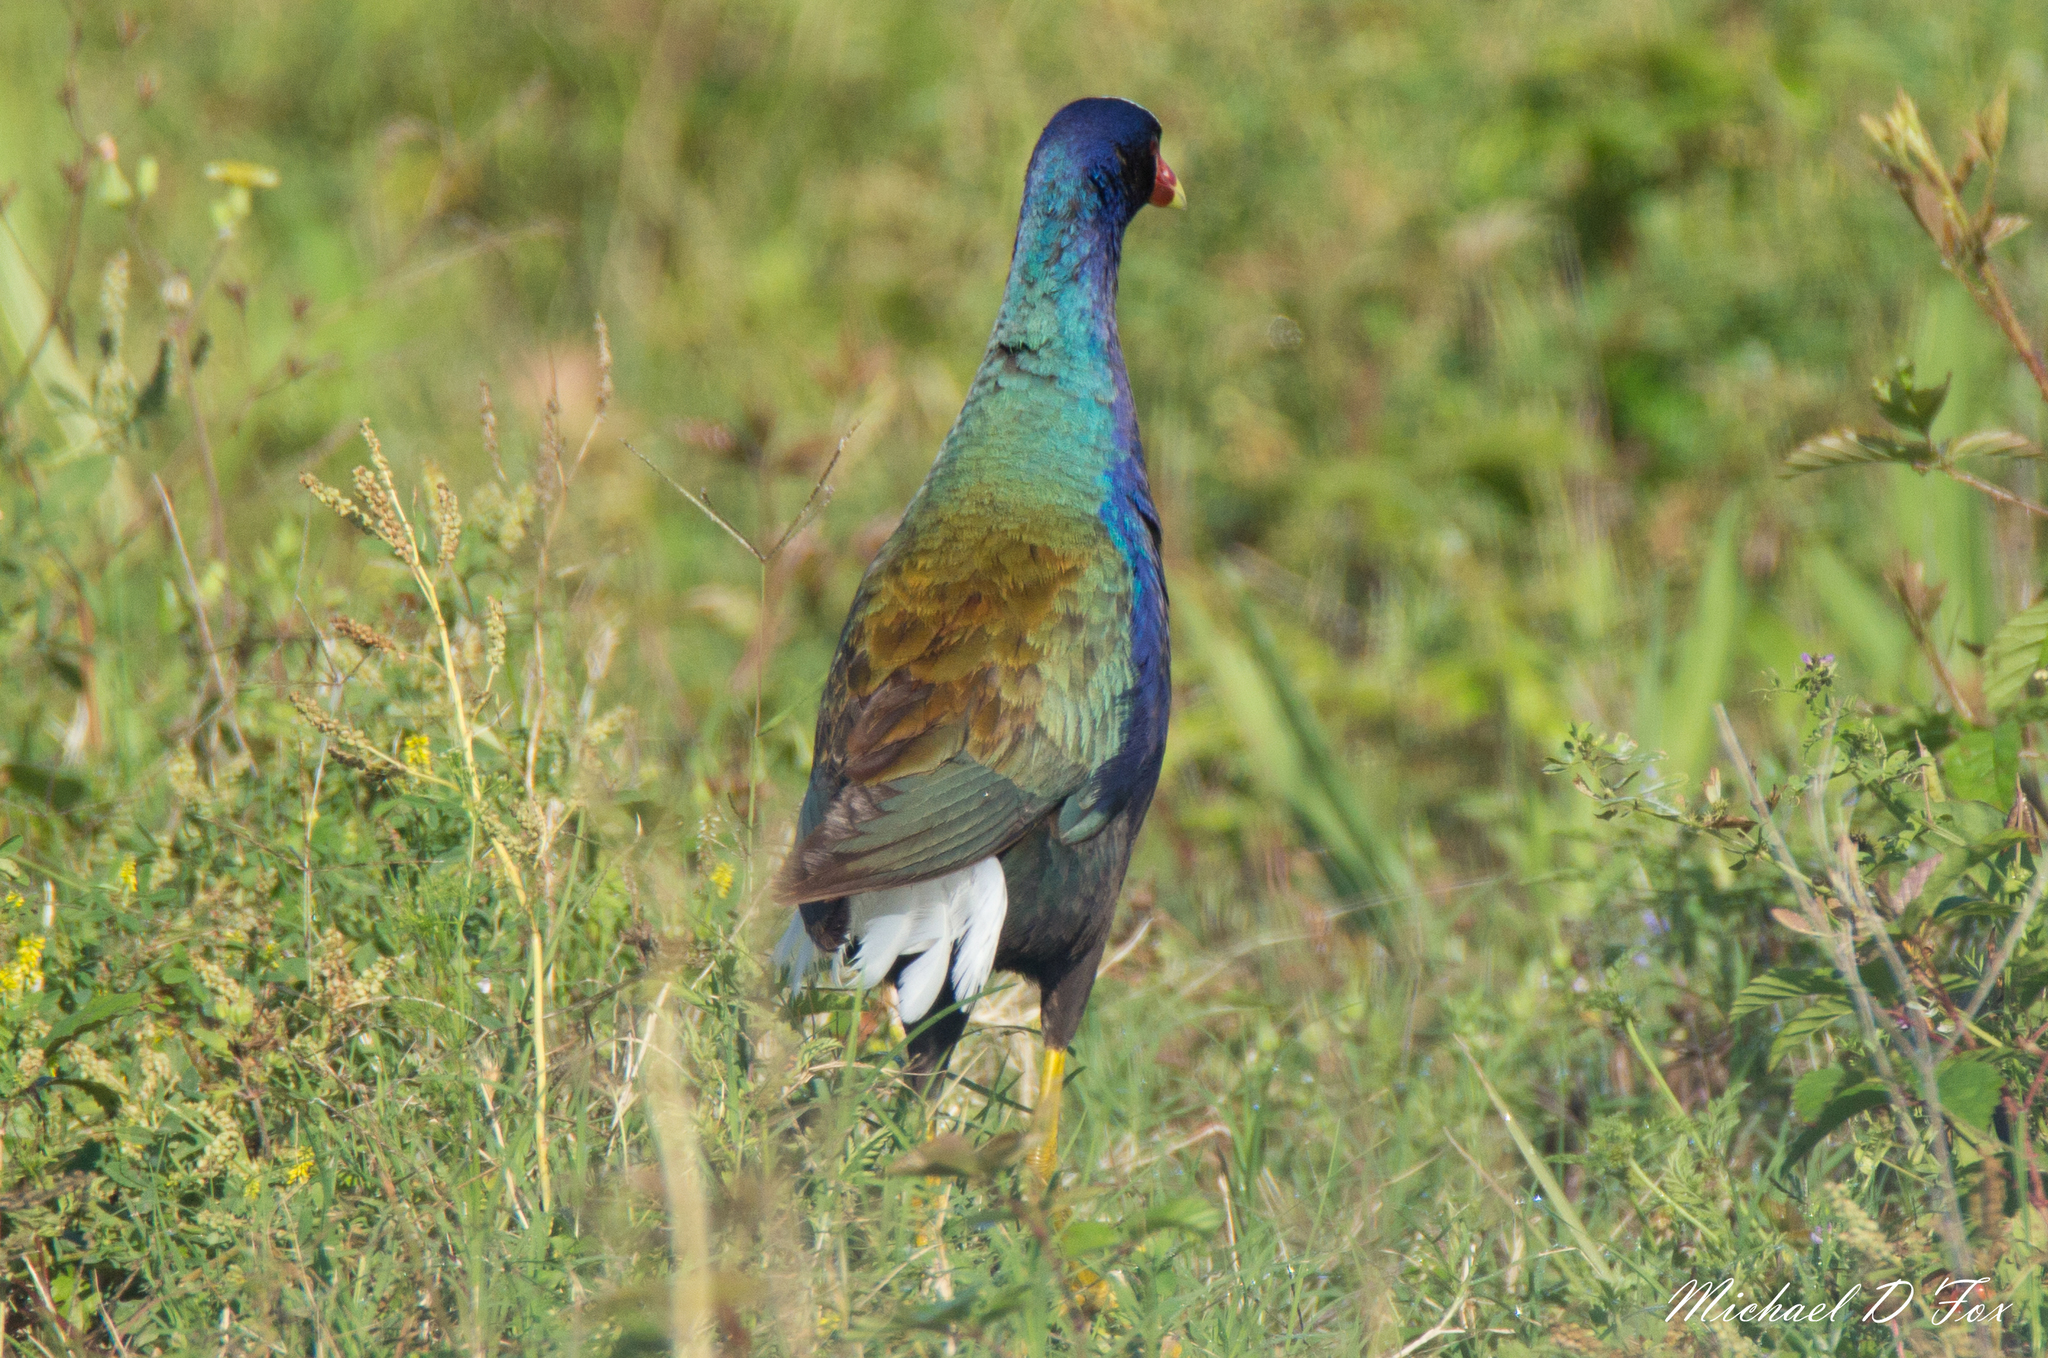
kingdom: Animalia
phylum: Chordata
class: Aves
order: Gruiformes
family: Rallidae
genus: Porphyrio
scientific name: Porphyrio martinica
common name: Purple gallinule
